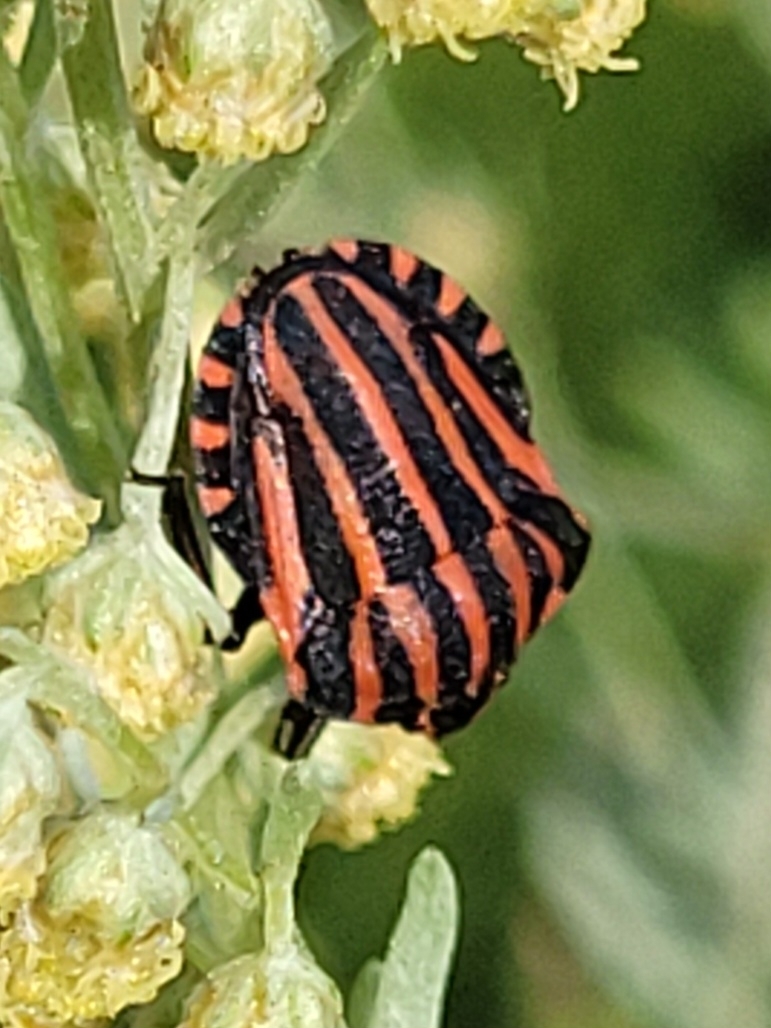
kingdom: Animalia
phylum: Arthropoda
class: Insecta
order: Hemiptera
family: Pentatomidae
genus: Graphosoma
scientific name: Graphosoma italicum
